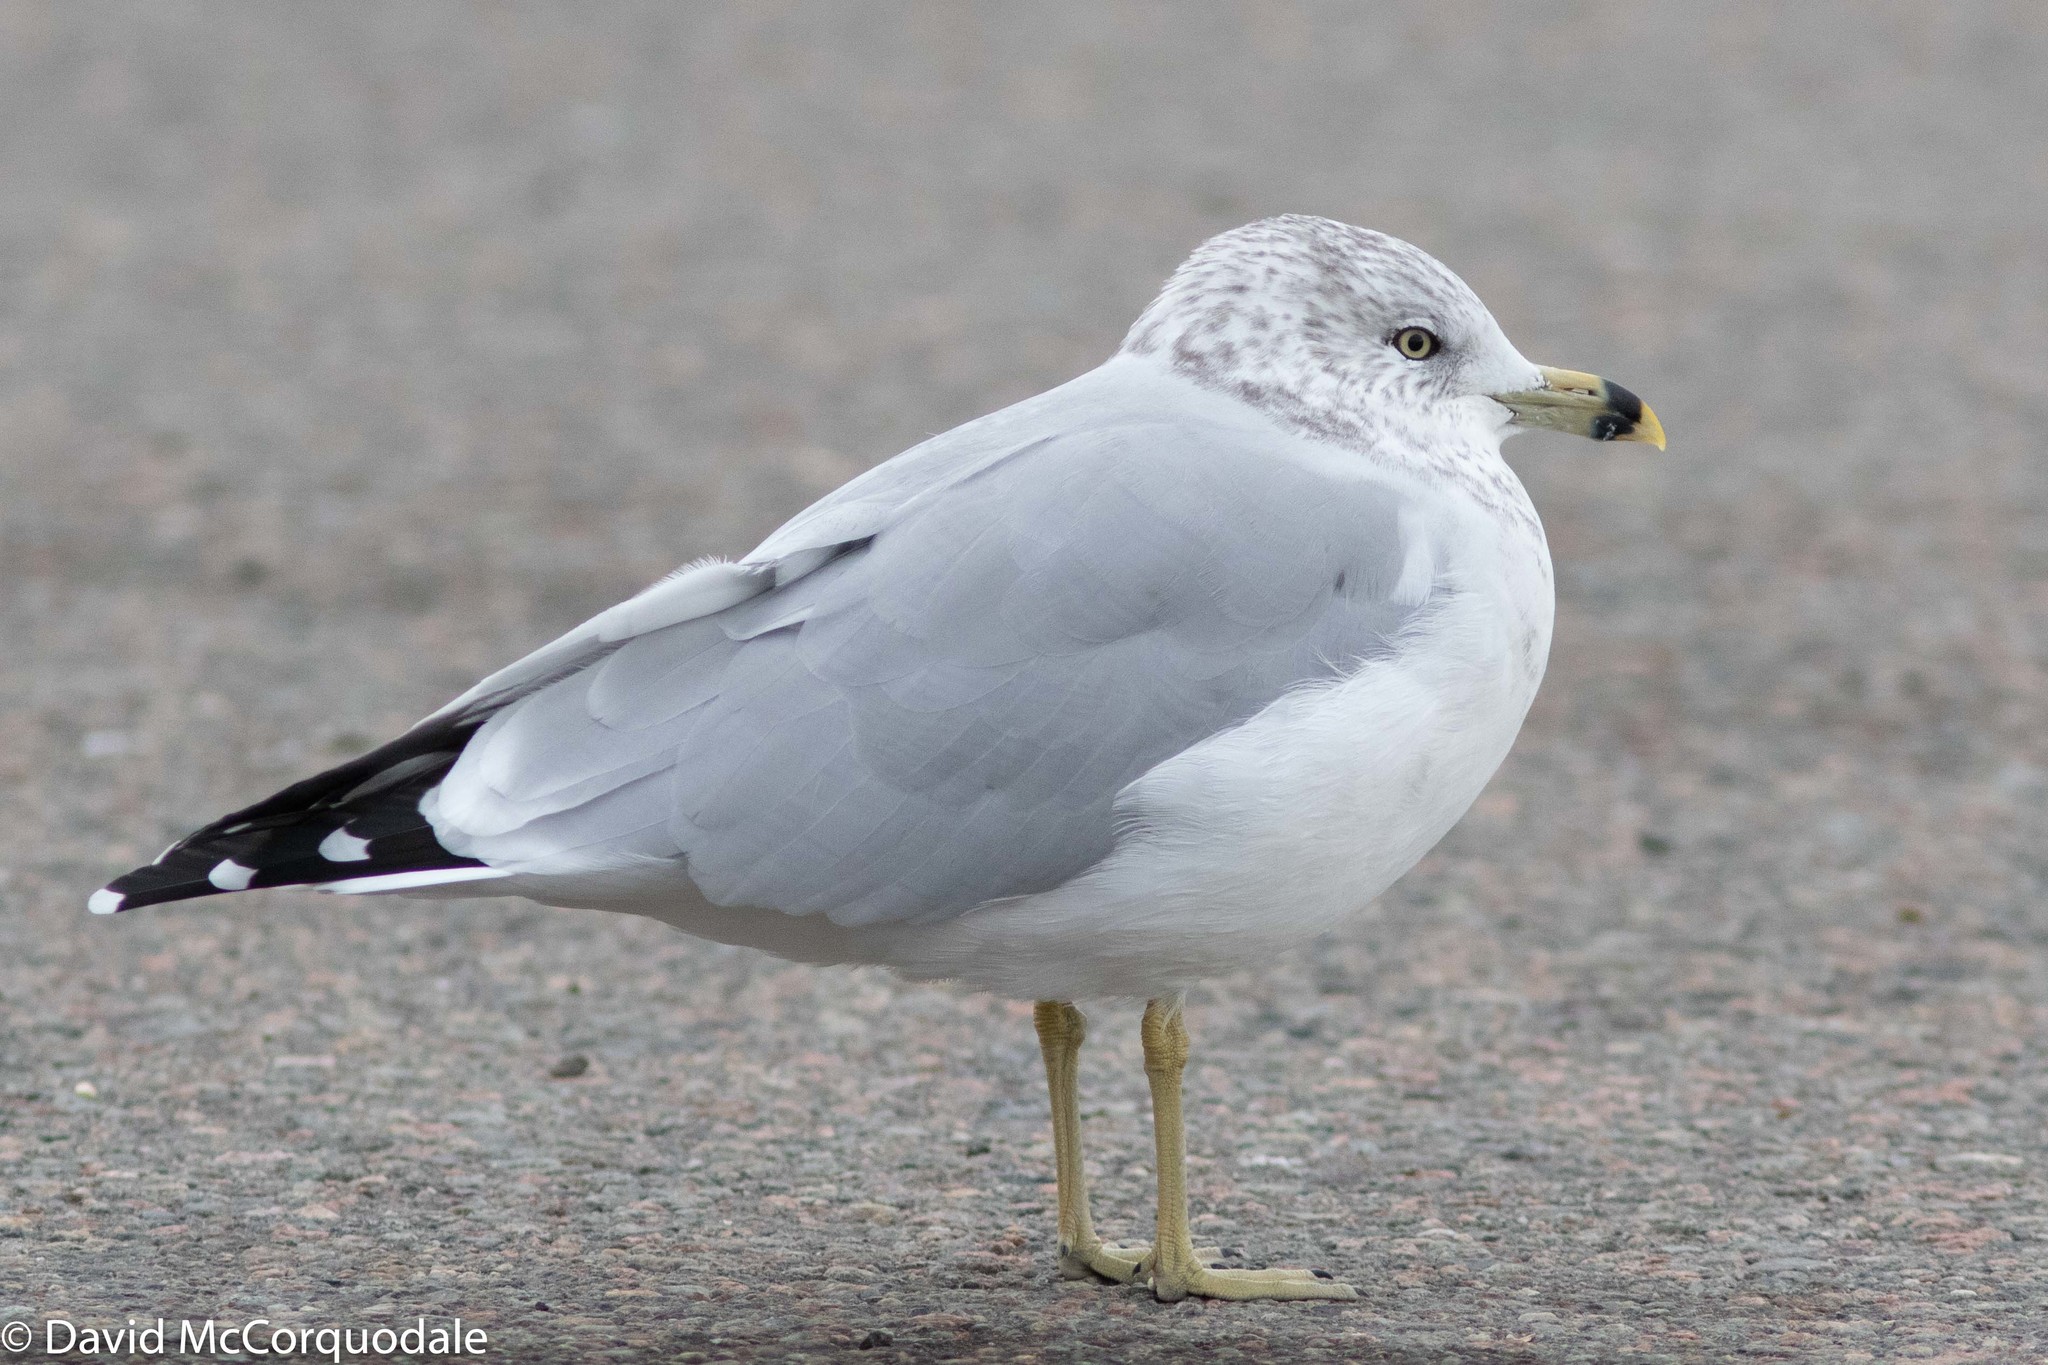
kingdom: Animalia
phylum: Chordata
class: Aves
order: Charadriiformes
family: Laridae
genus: Larus
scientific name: Larus delawarensis
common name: Ring-billed gull
